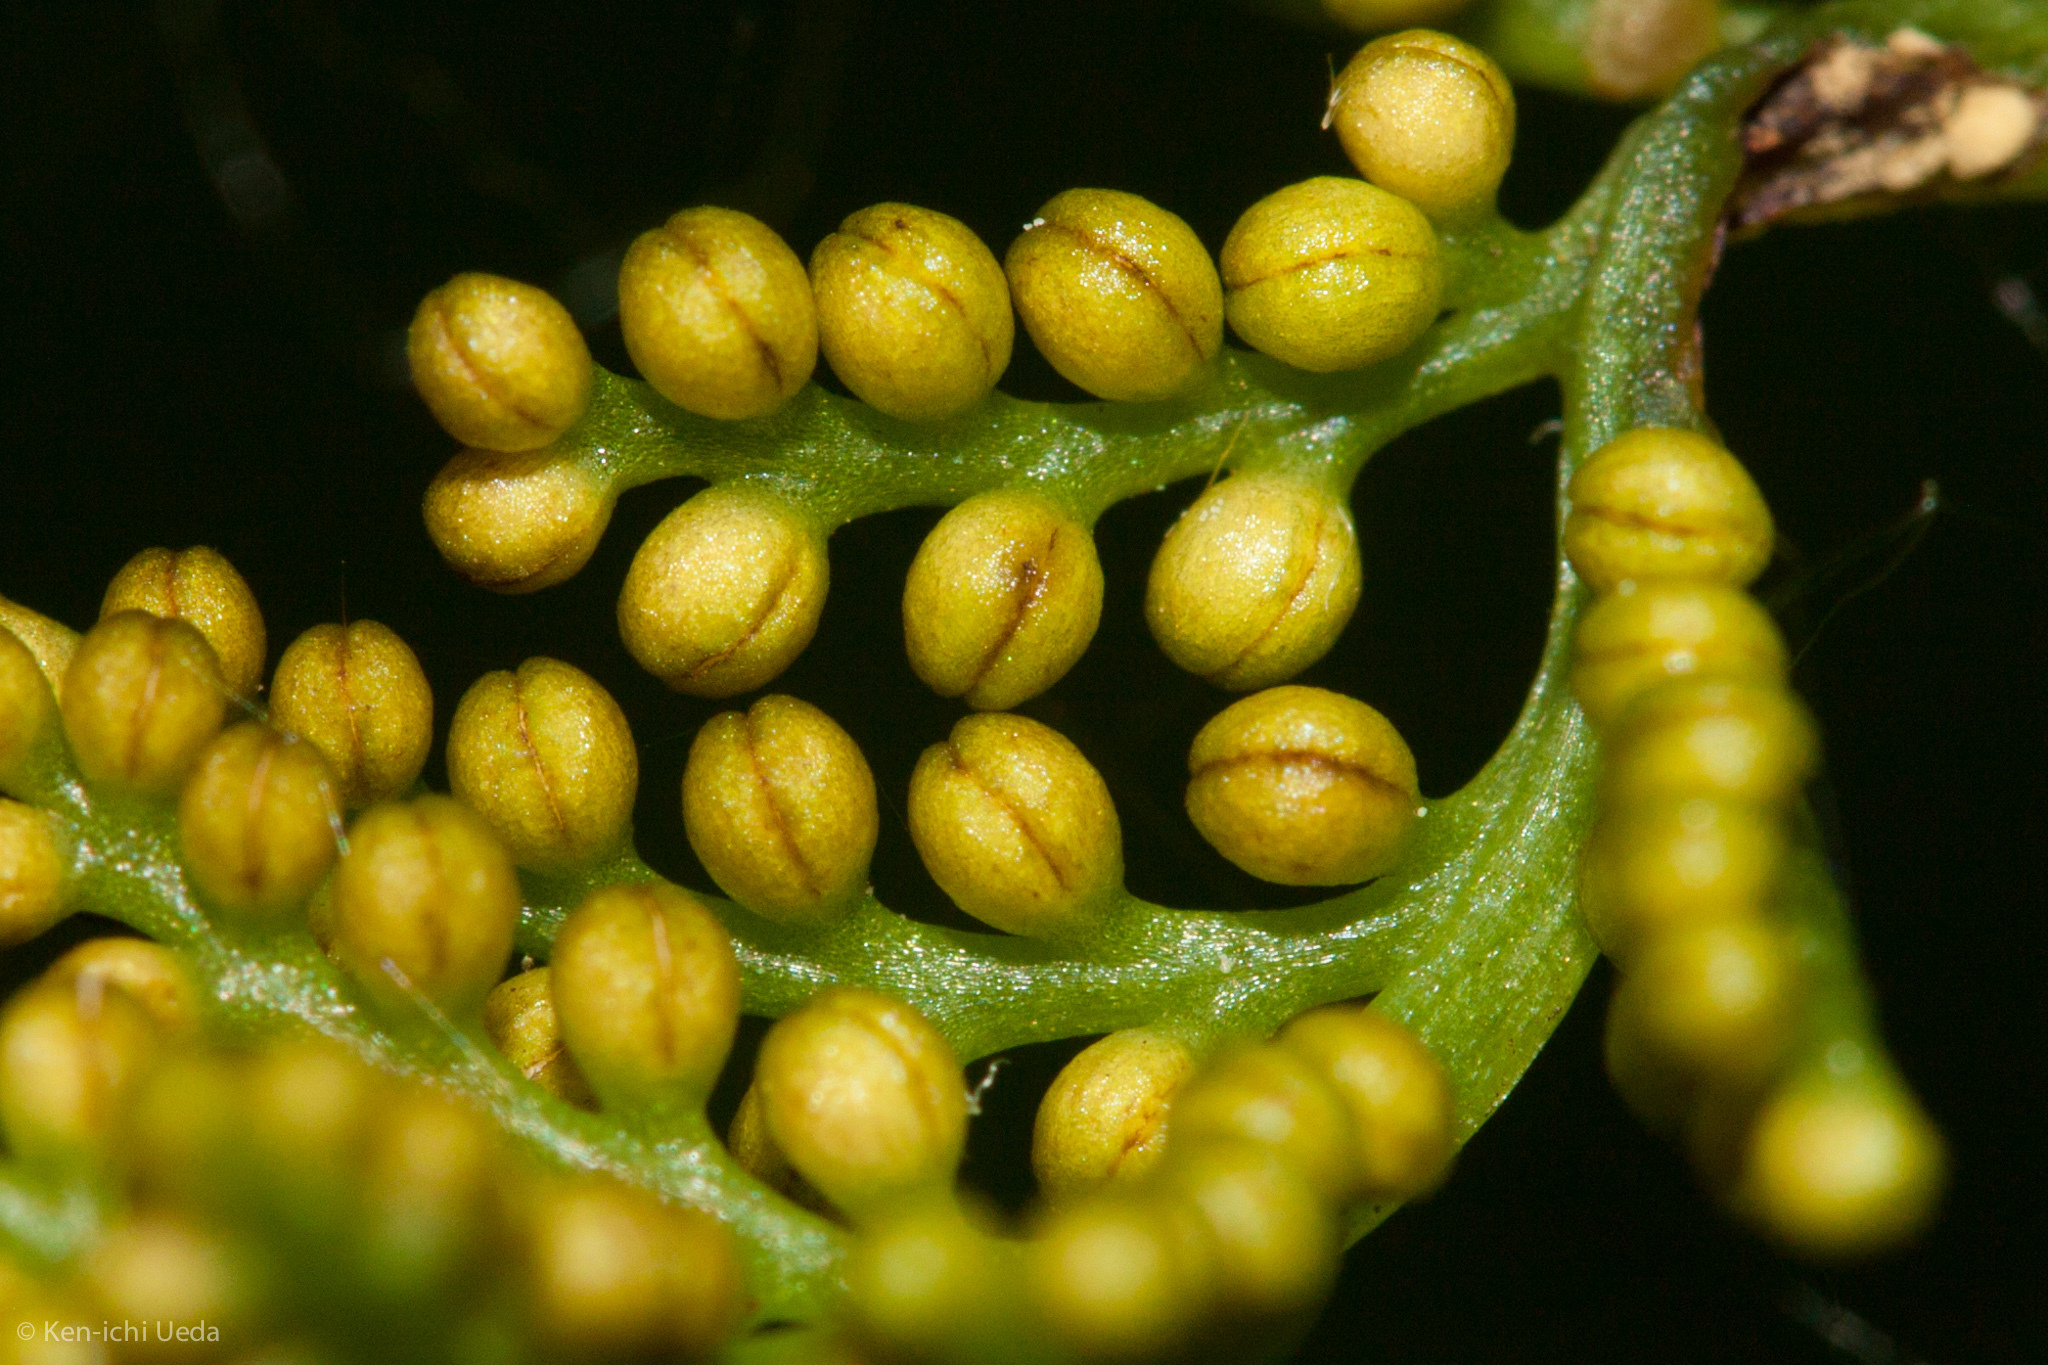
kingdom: Plantae
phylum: Tracheophyta
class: Polypodiopsida
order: Ophioglossales
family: Ophioglossaceae
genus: Botrypus
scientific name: Botrypus virginianus
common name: Common grapefern
